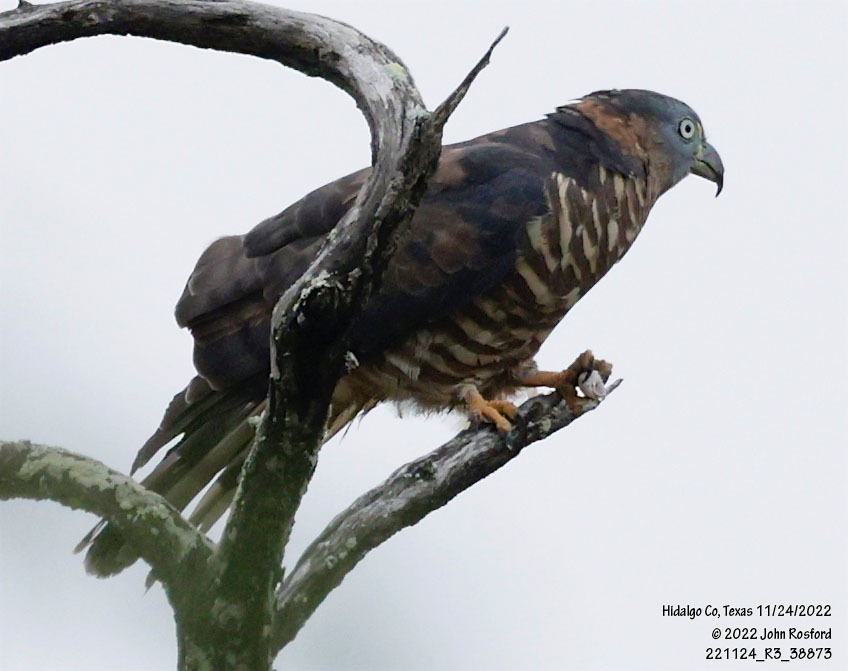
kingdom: Animalia
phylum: Chordata
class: Aves
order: Accipitriformes
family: Accipitridae
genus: Chondrohierax
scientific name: Chondrohierax uncinatus
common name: Hook-billed kite
